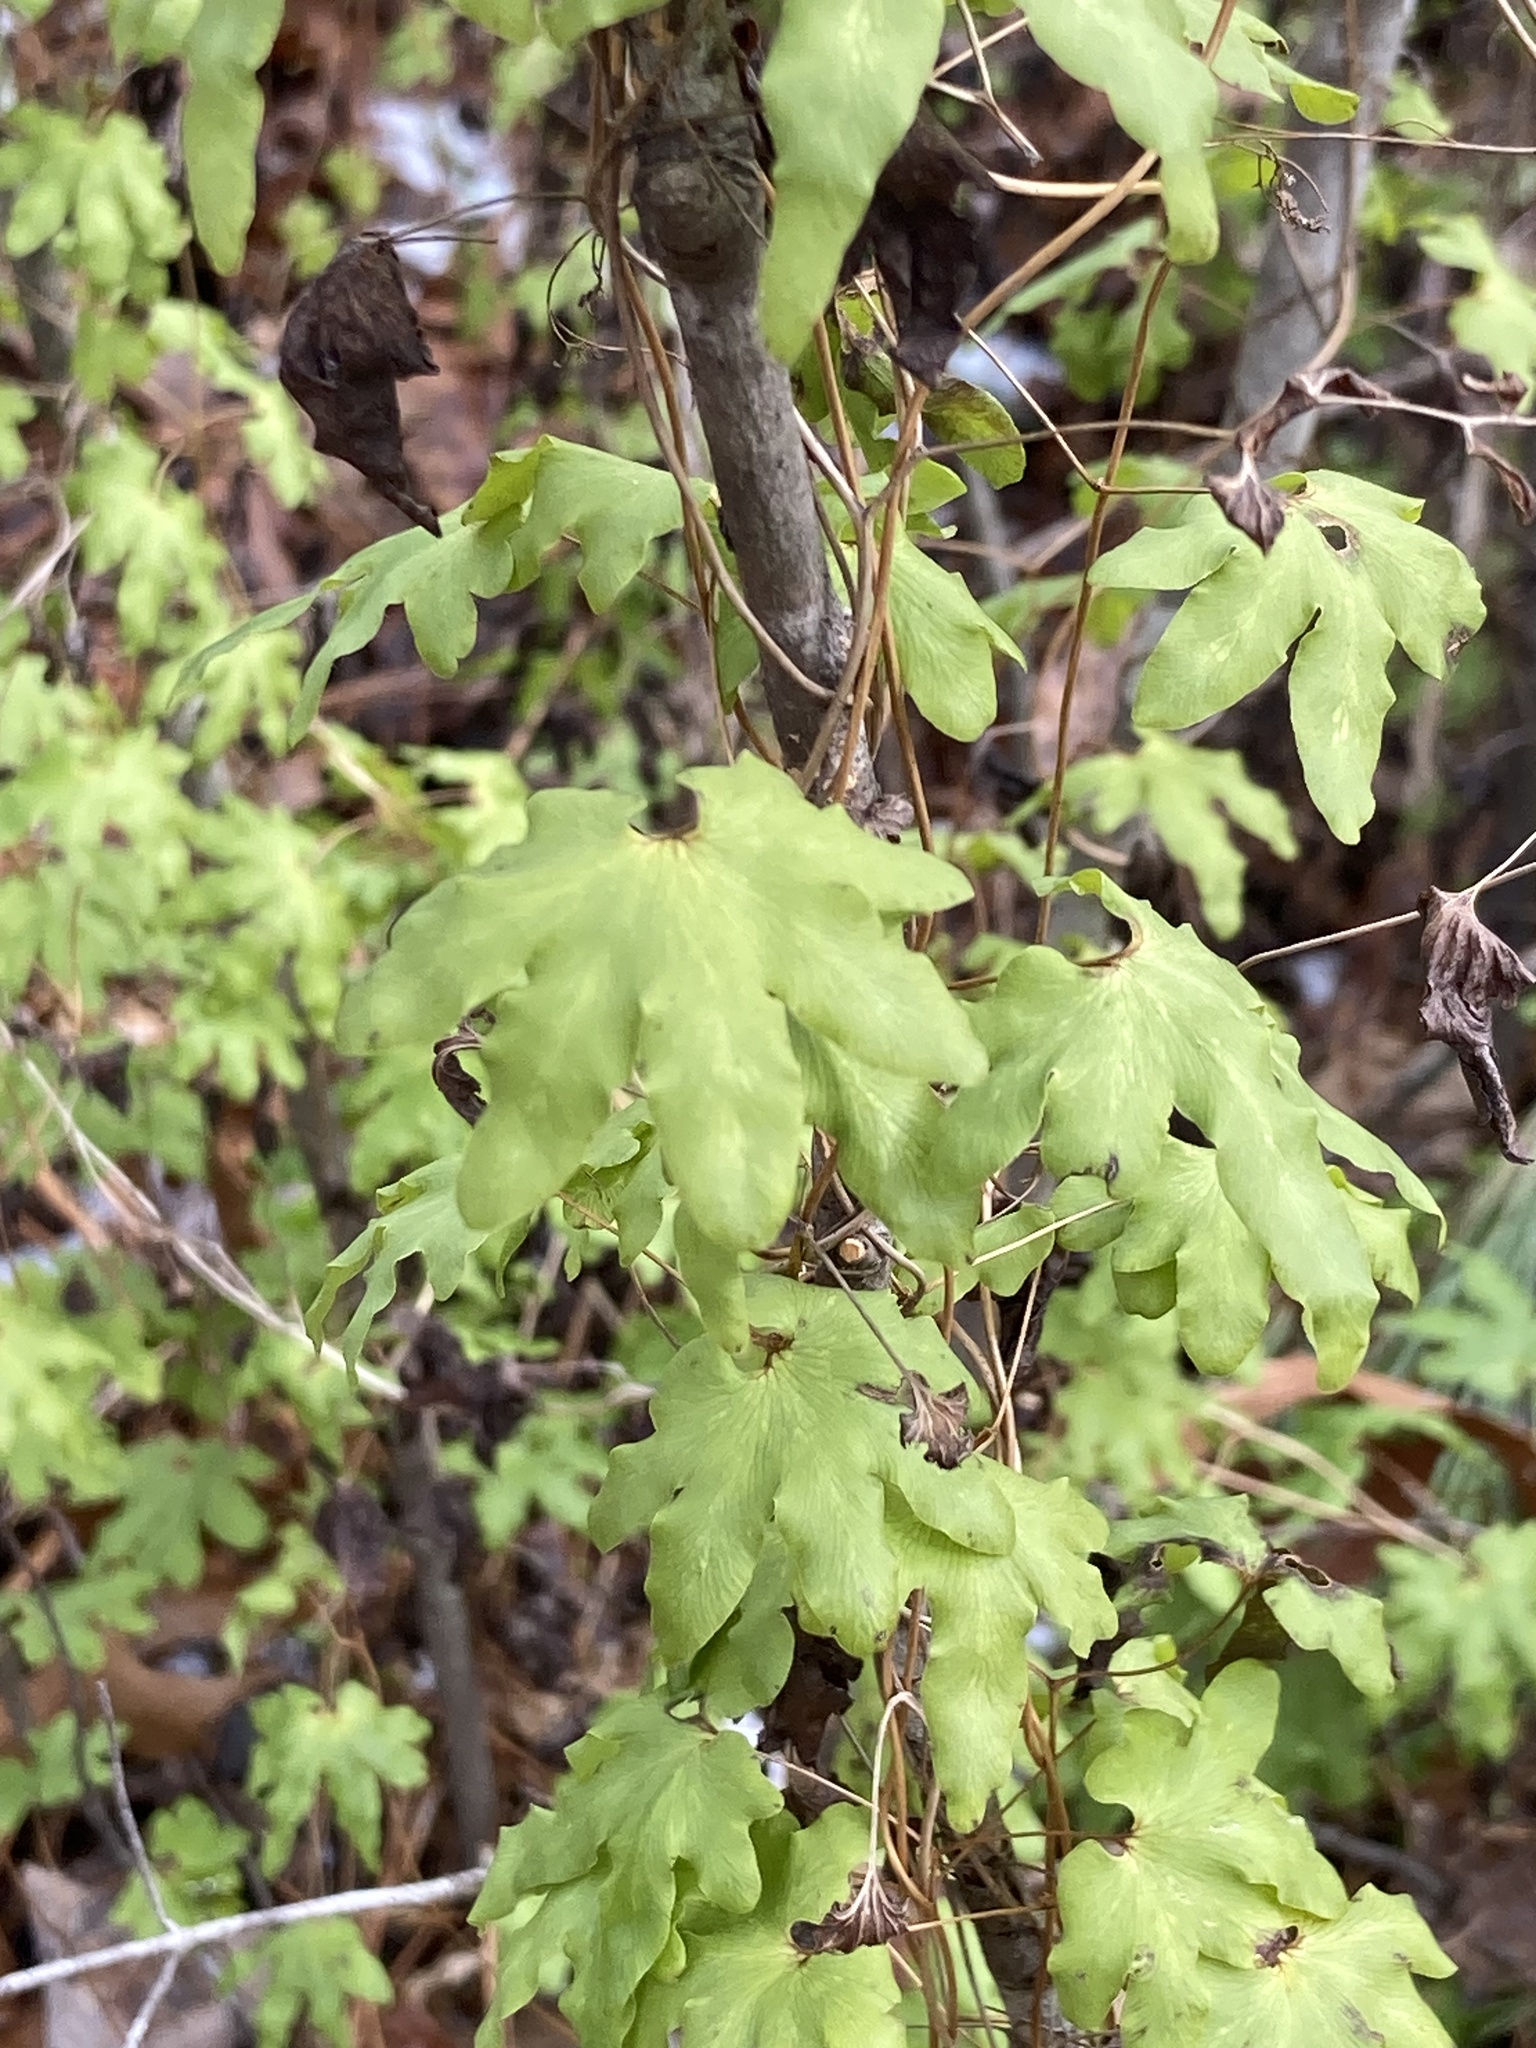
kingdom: Plantae
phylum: Tracheophyta
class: Polypodiopsida
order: Schizaeales
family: Lygodiaceae
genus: Lygodium
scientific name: Lygodium palmatum
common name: American climbing fern
